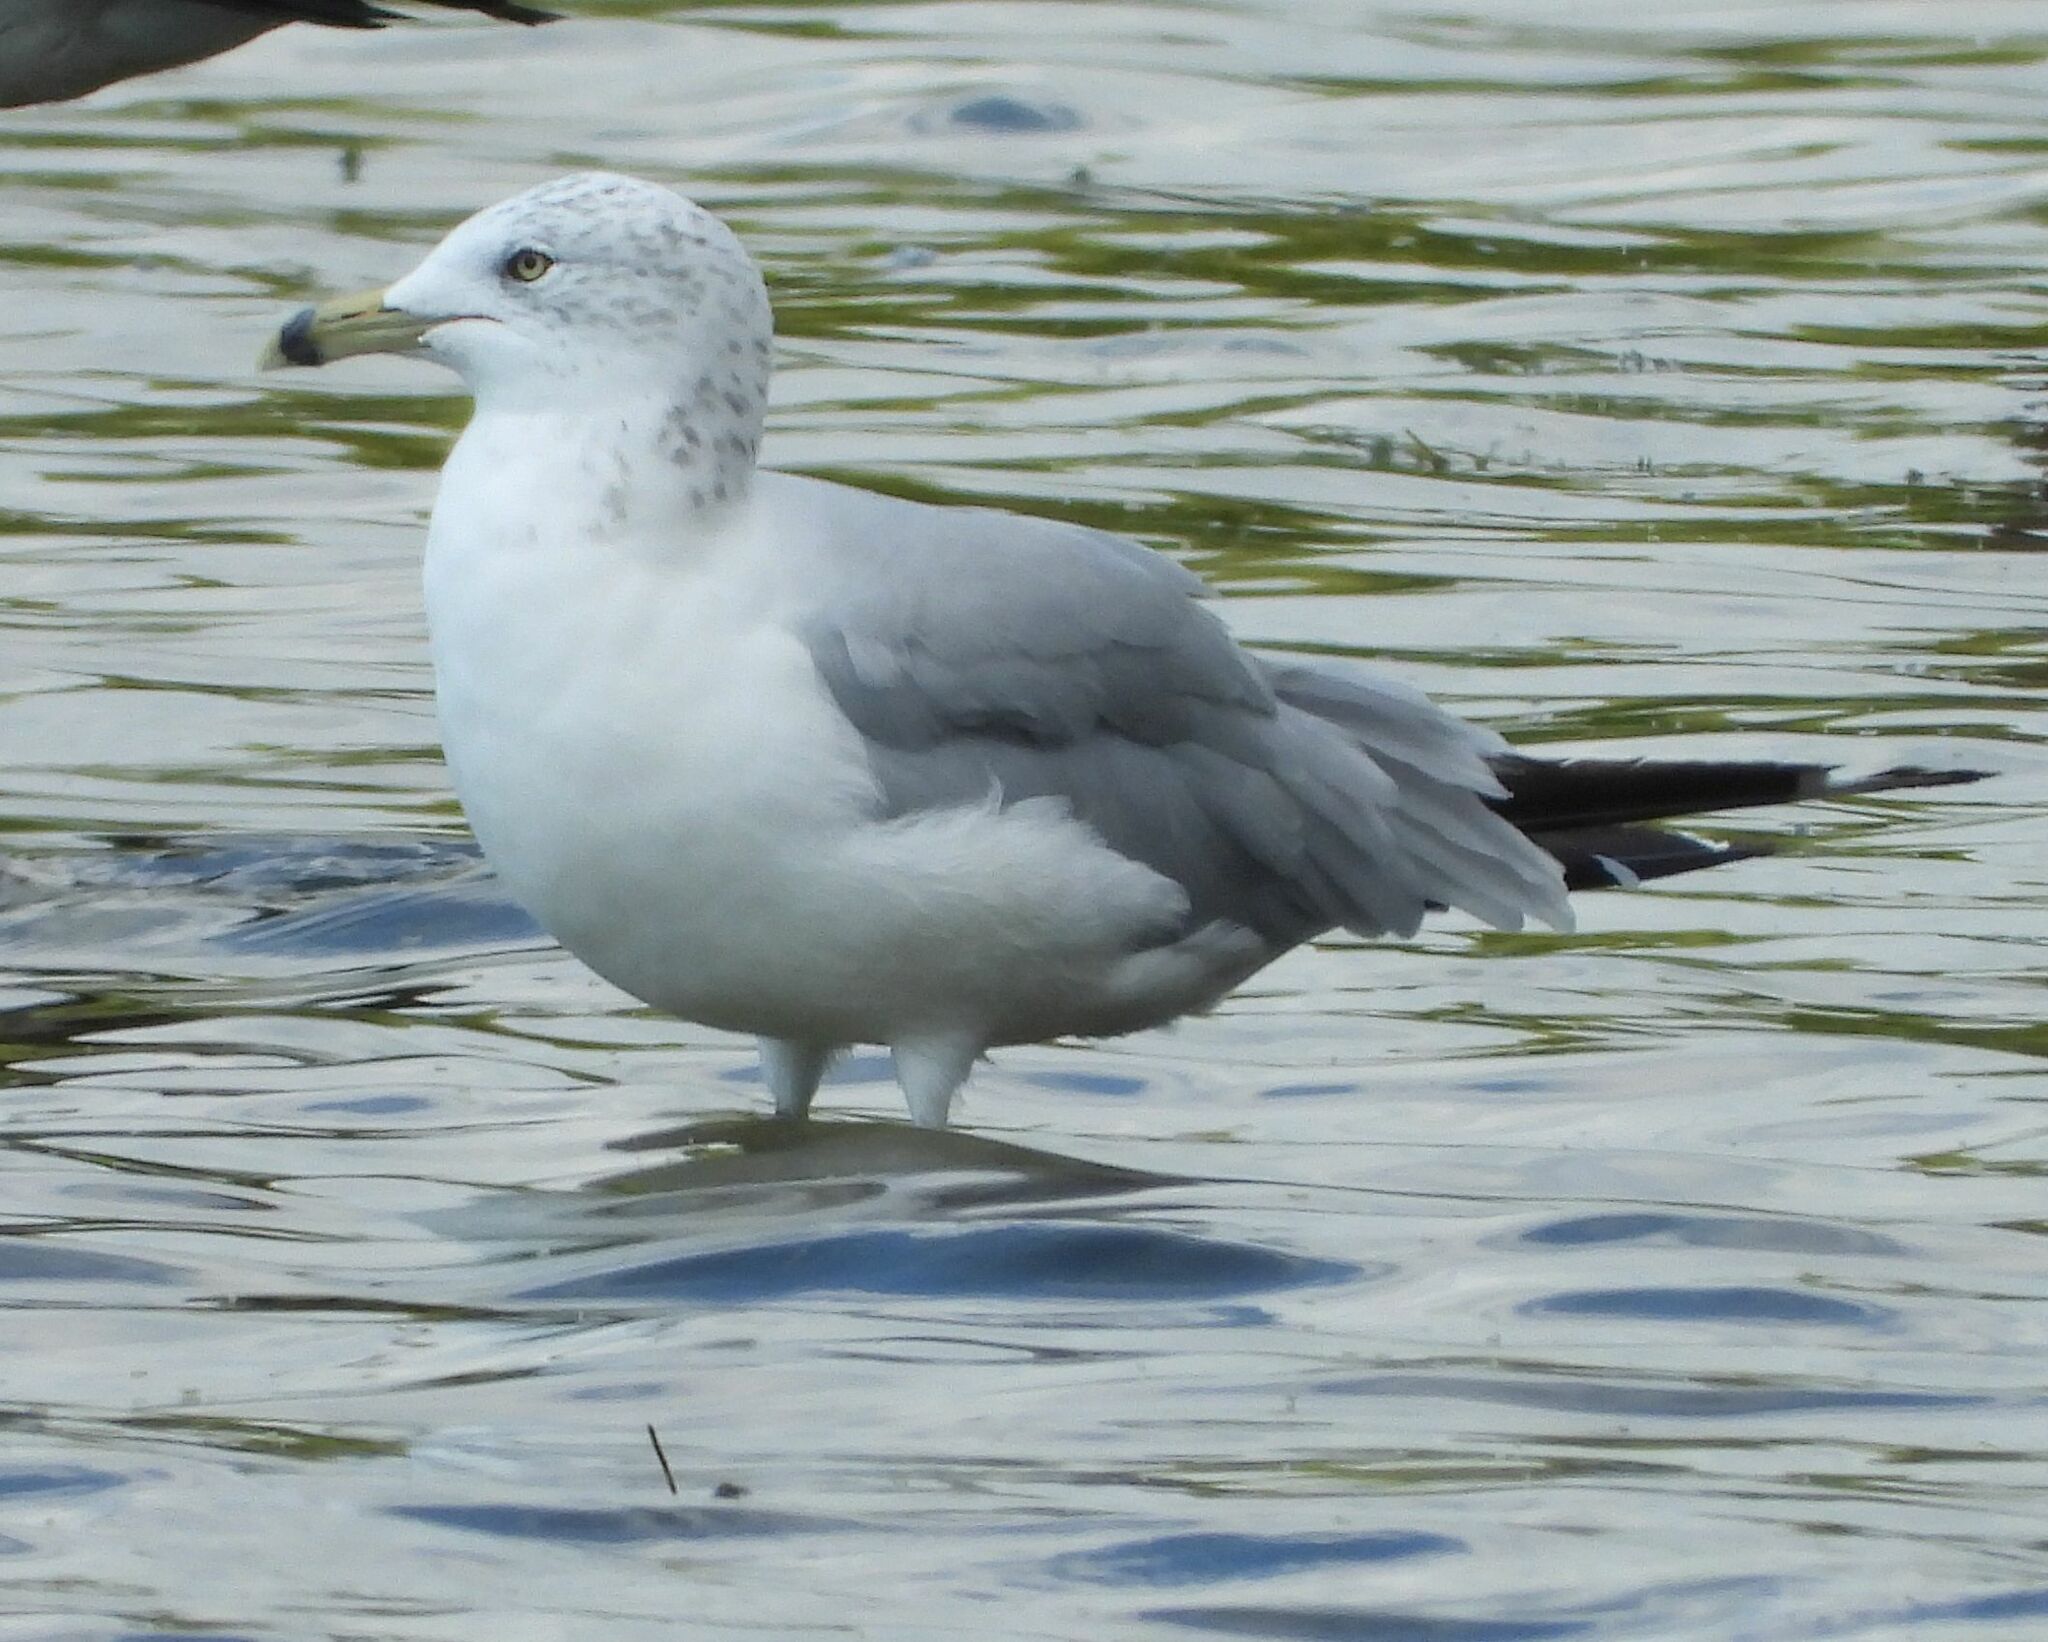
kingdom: Animalia
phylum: Chordata
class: Aves
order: Charadriiformes
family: Laridae
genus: Larus
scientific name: Larus delawarensis
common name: Ring-billed gull
